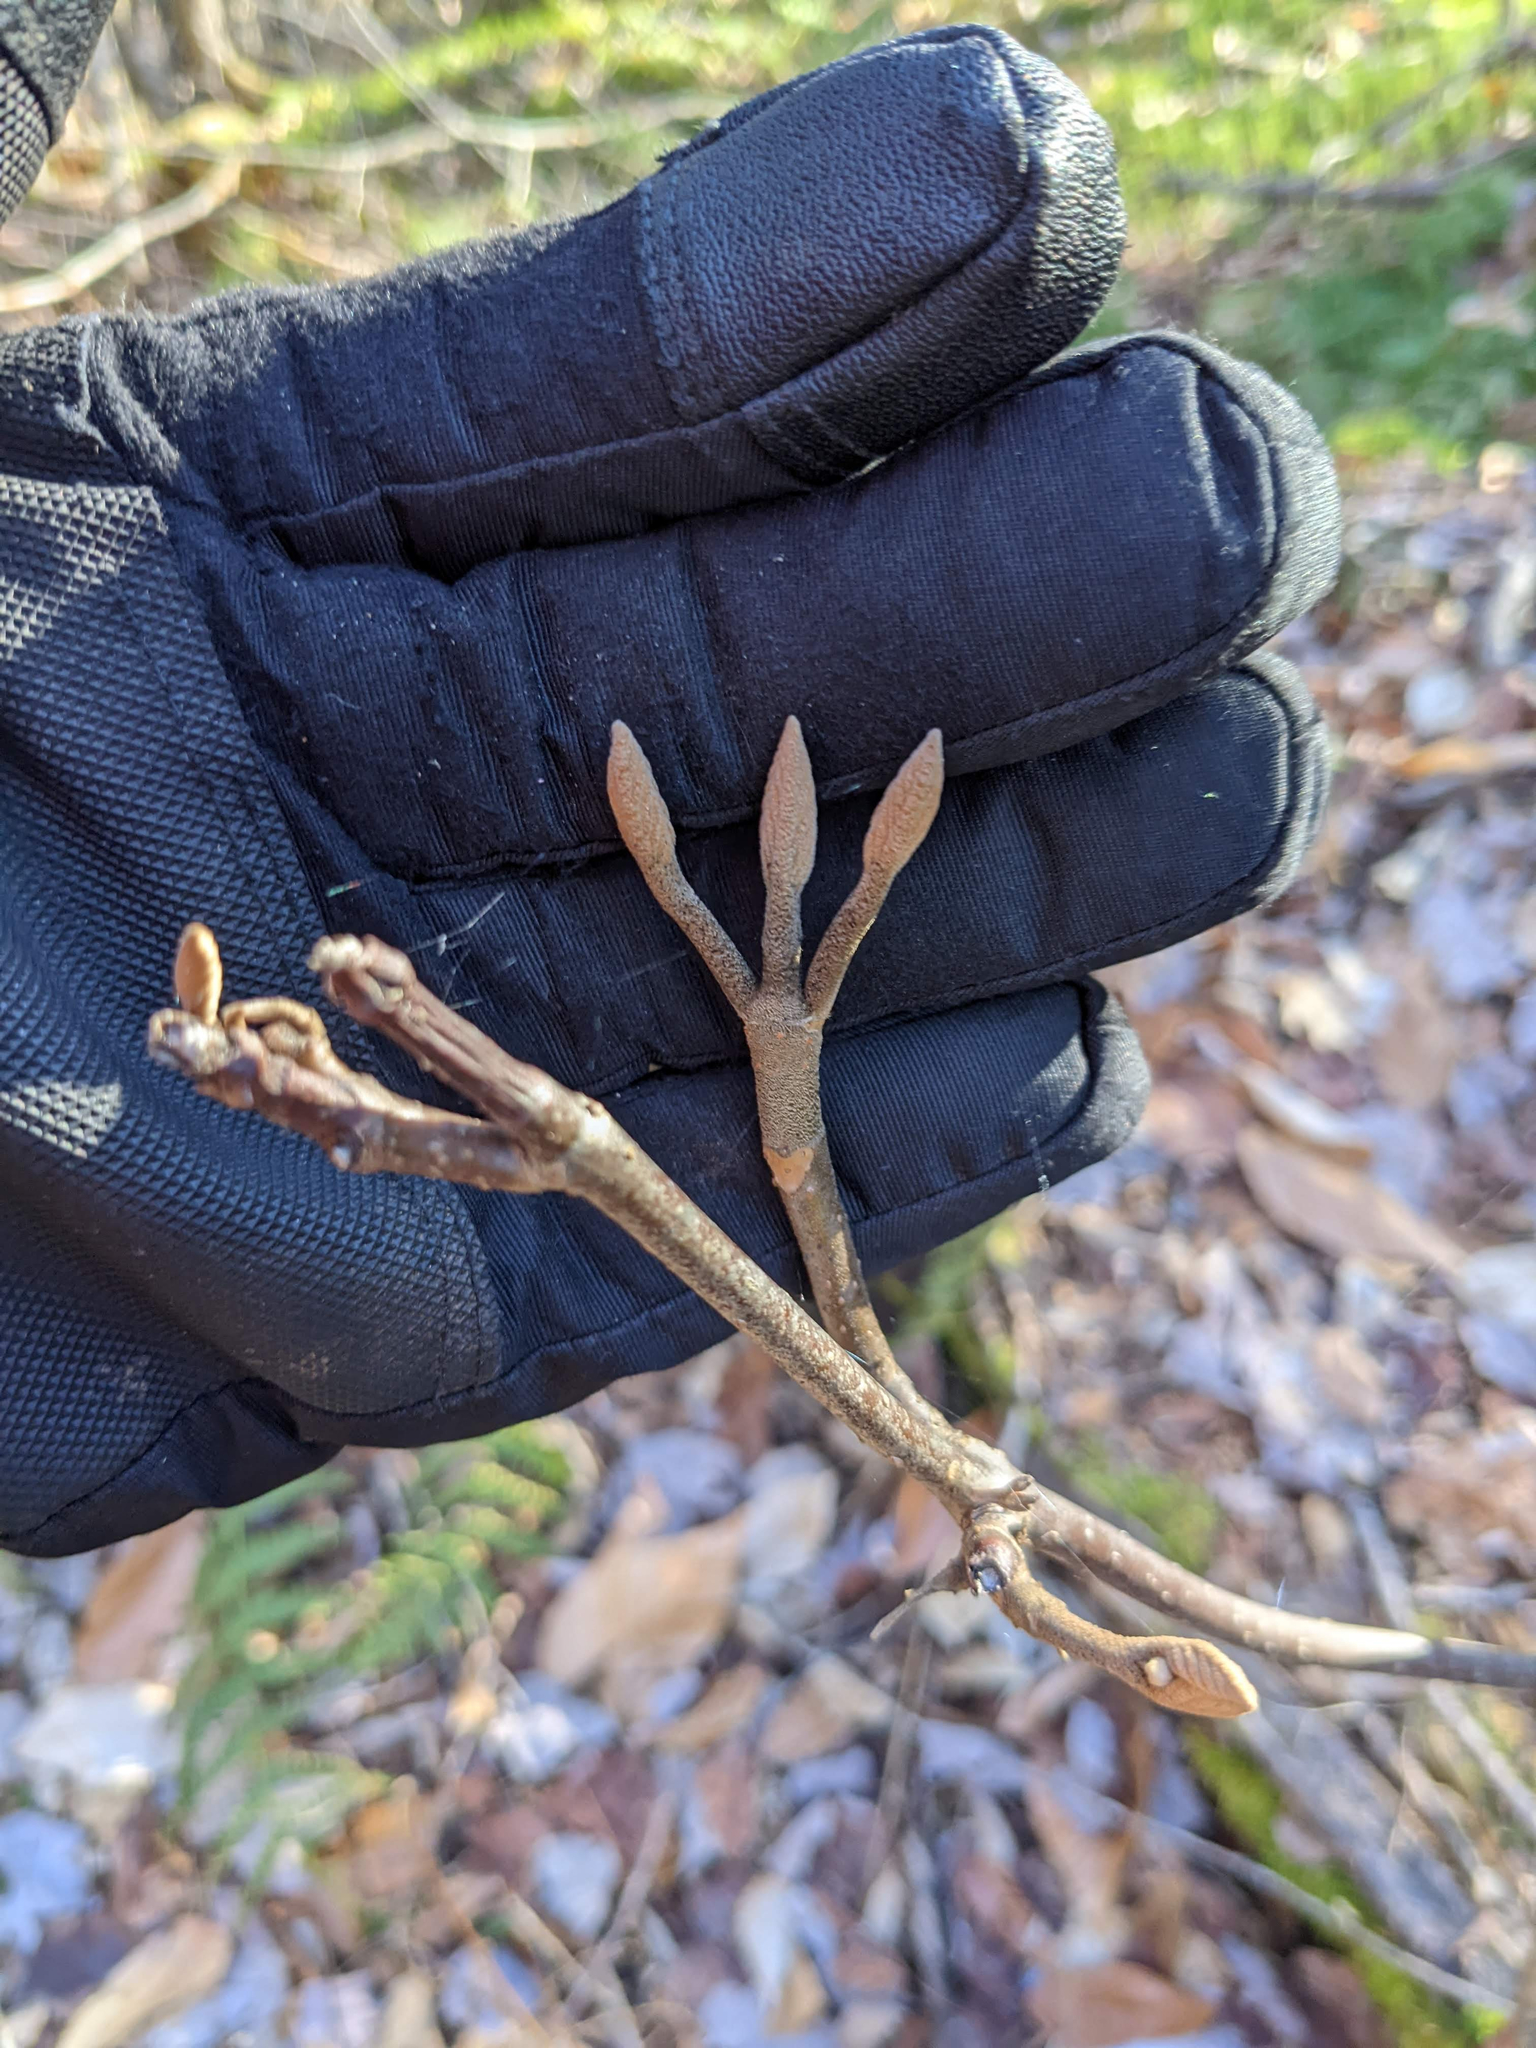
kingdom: Plantae
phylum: Tracheophyta
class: Magnoliopsida
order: Dipsacales
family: Viburnaceae
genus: Viburnum
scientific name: Viburnum lantanoides
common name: Hobblebush
